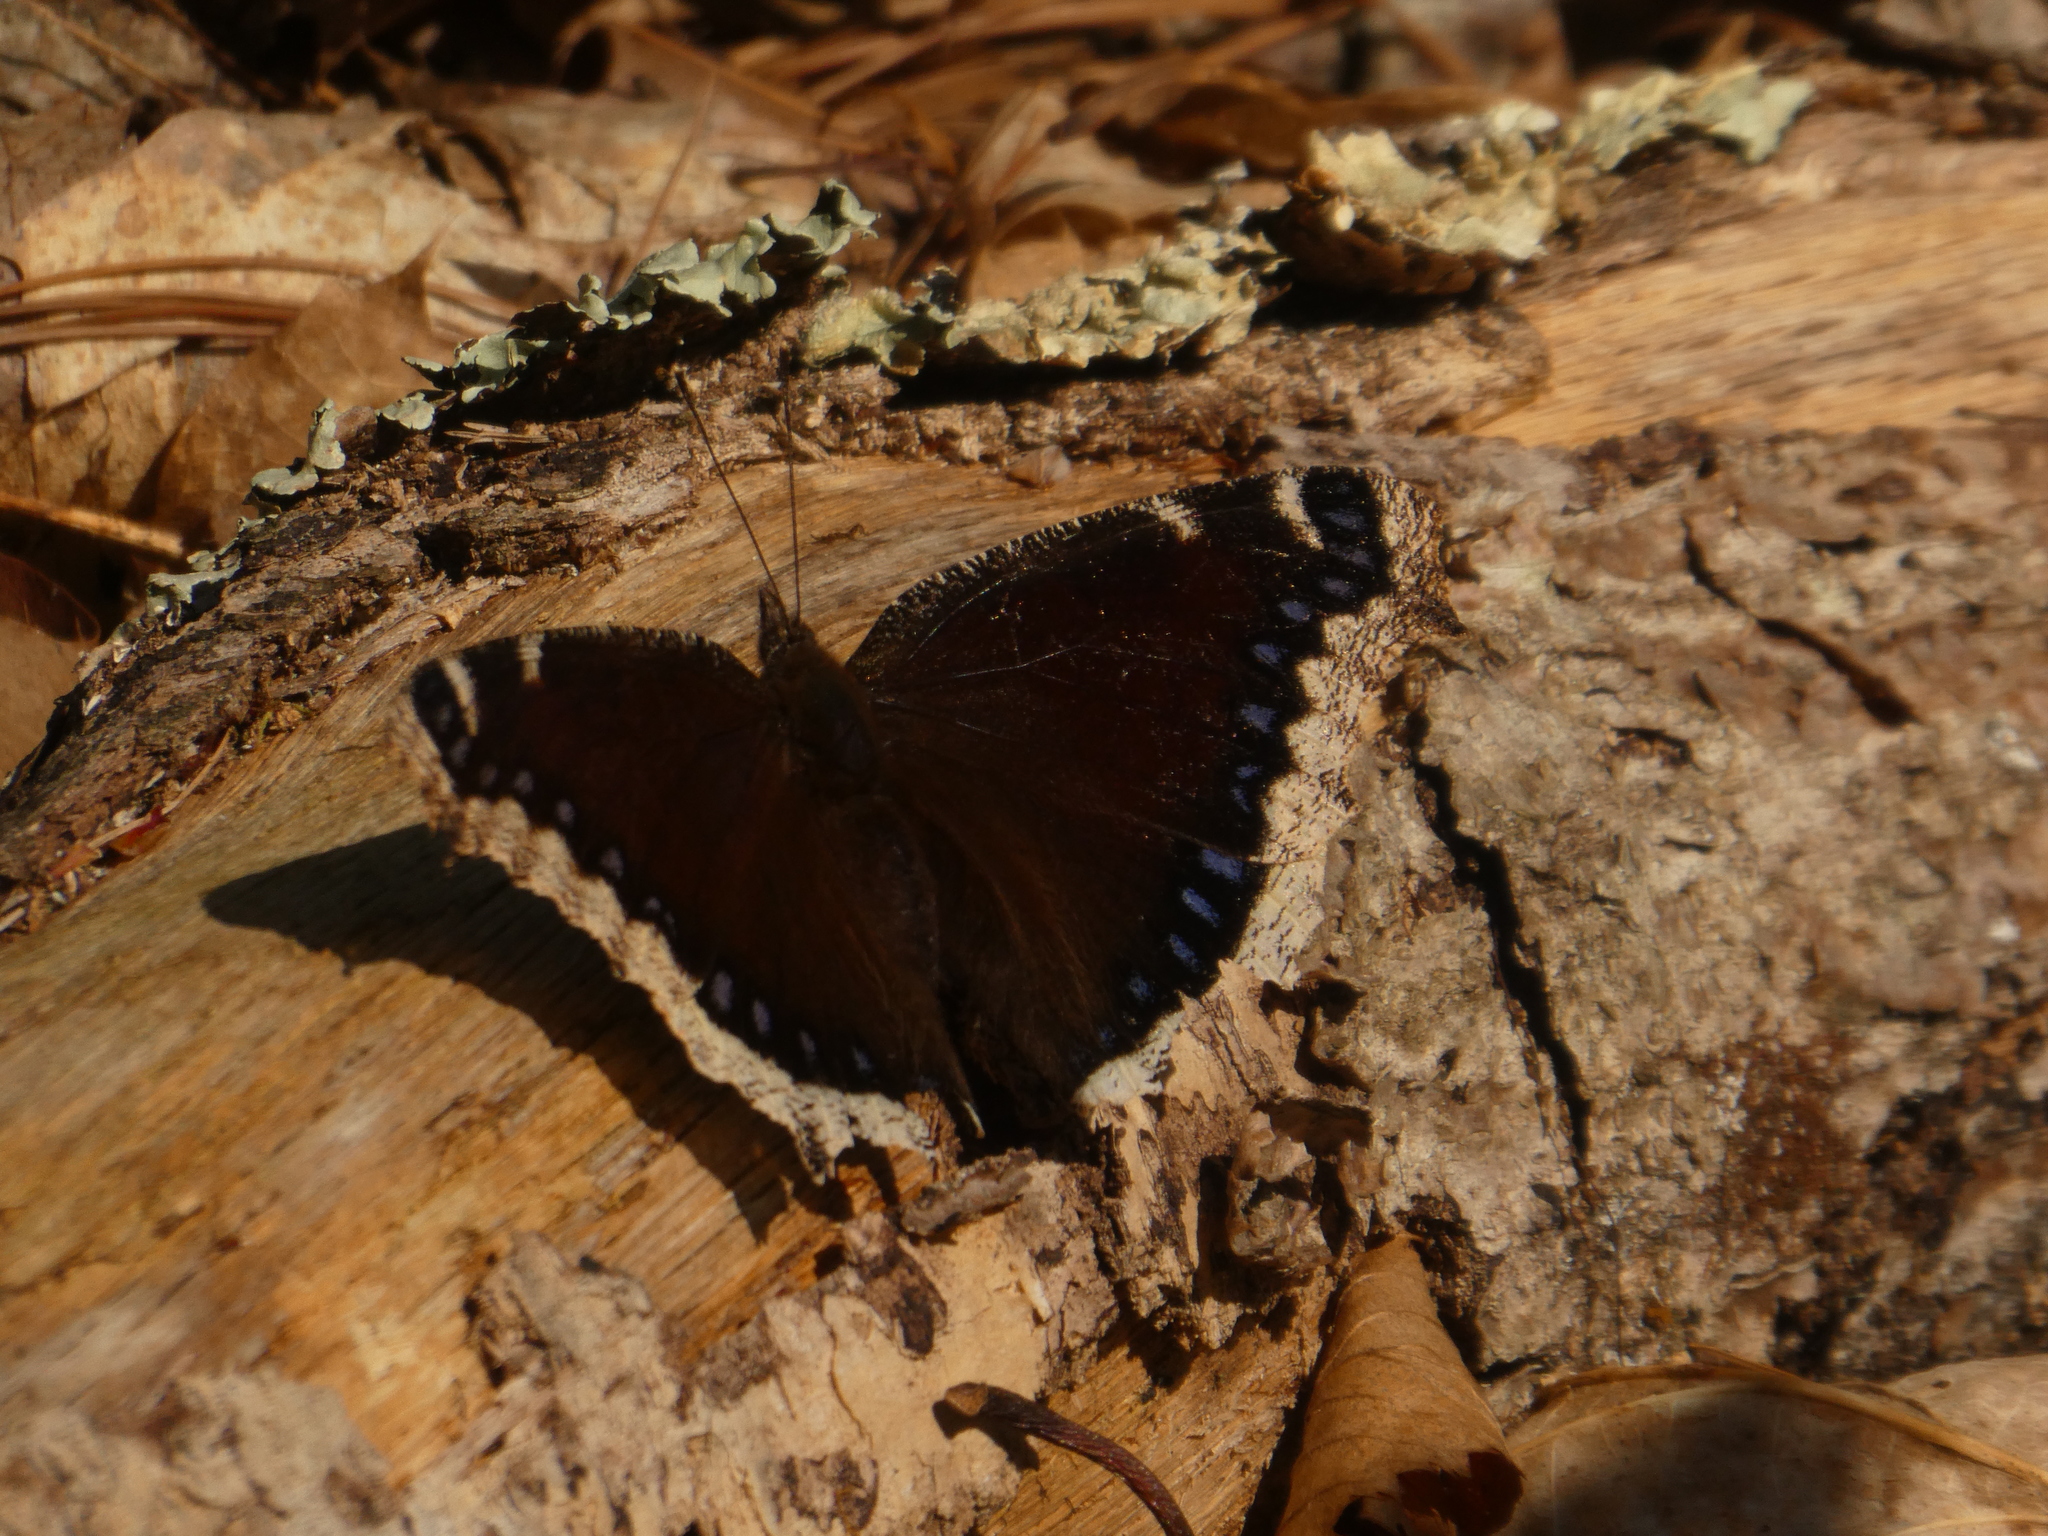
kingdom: Animalia
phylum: Arthropoda
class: Insecta
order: Lepidoptera
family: Nymphalidae
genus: Nymphalis
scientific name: Nymphalis antiopa
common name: Camberwell beauty
